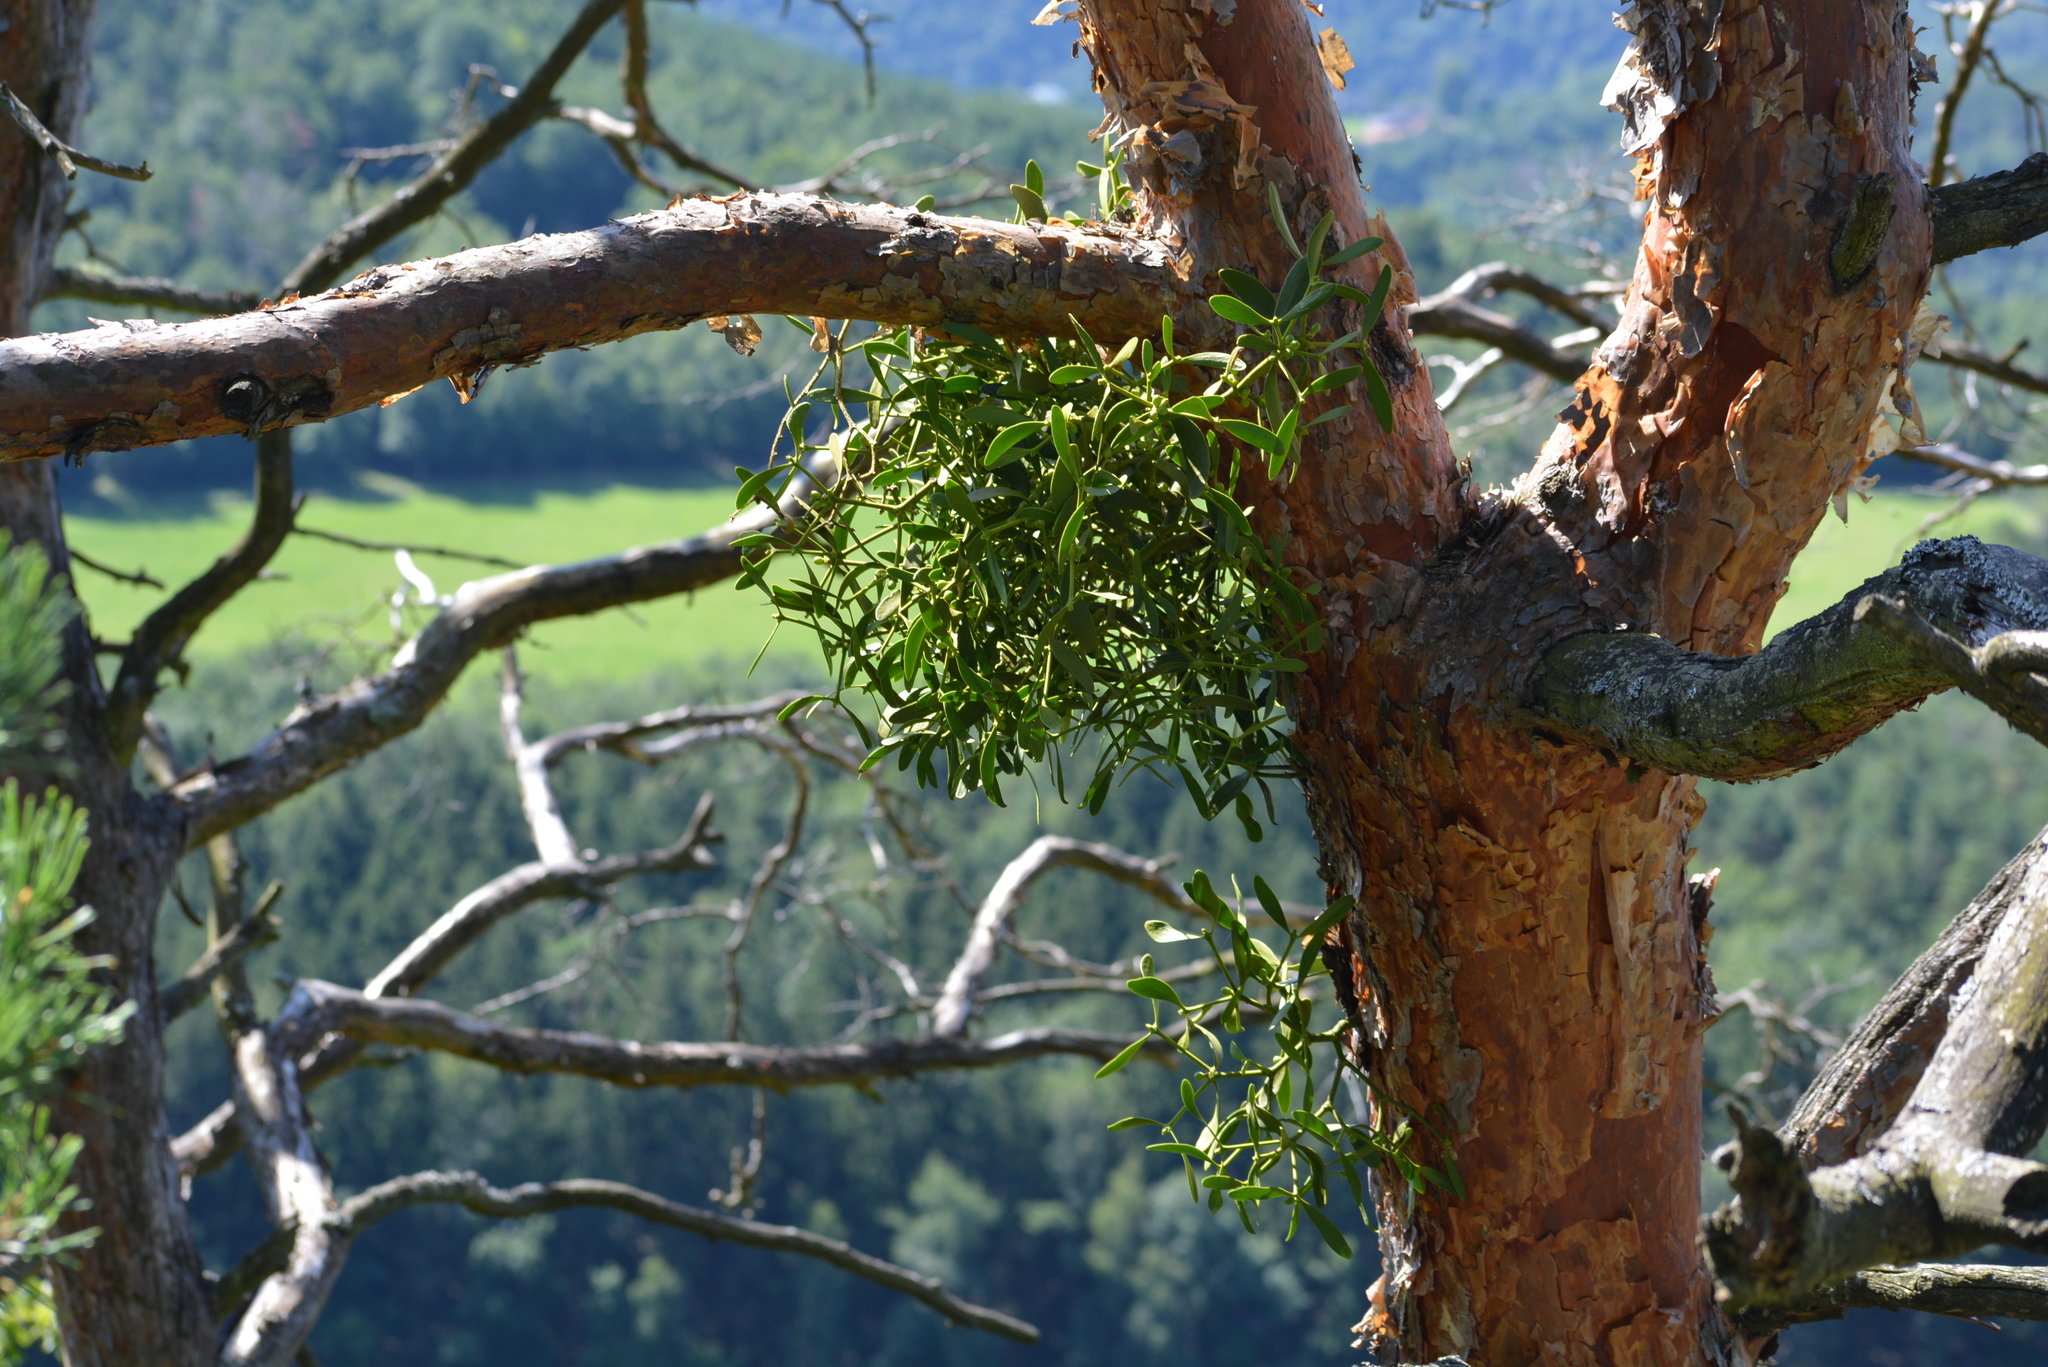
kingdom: Plantae
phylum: Tracheophyta
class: Magnoliopsida
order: Santalales
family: Viscaceae
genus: Viscum
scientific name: Viscum laxum
